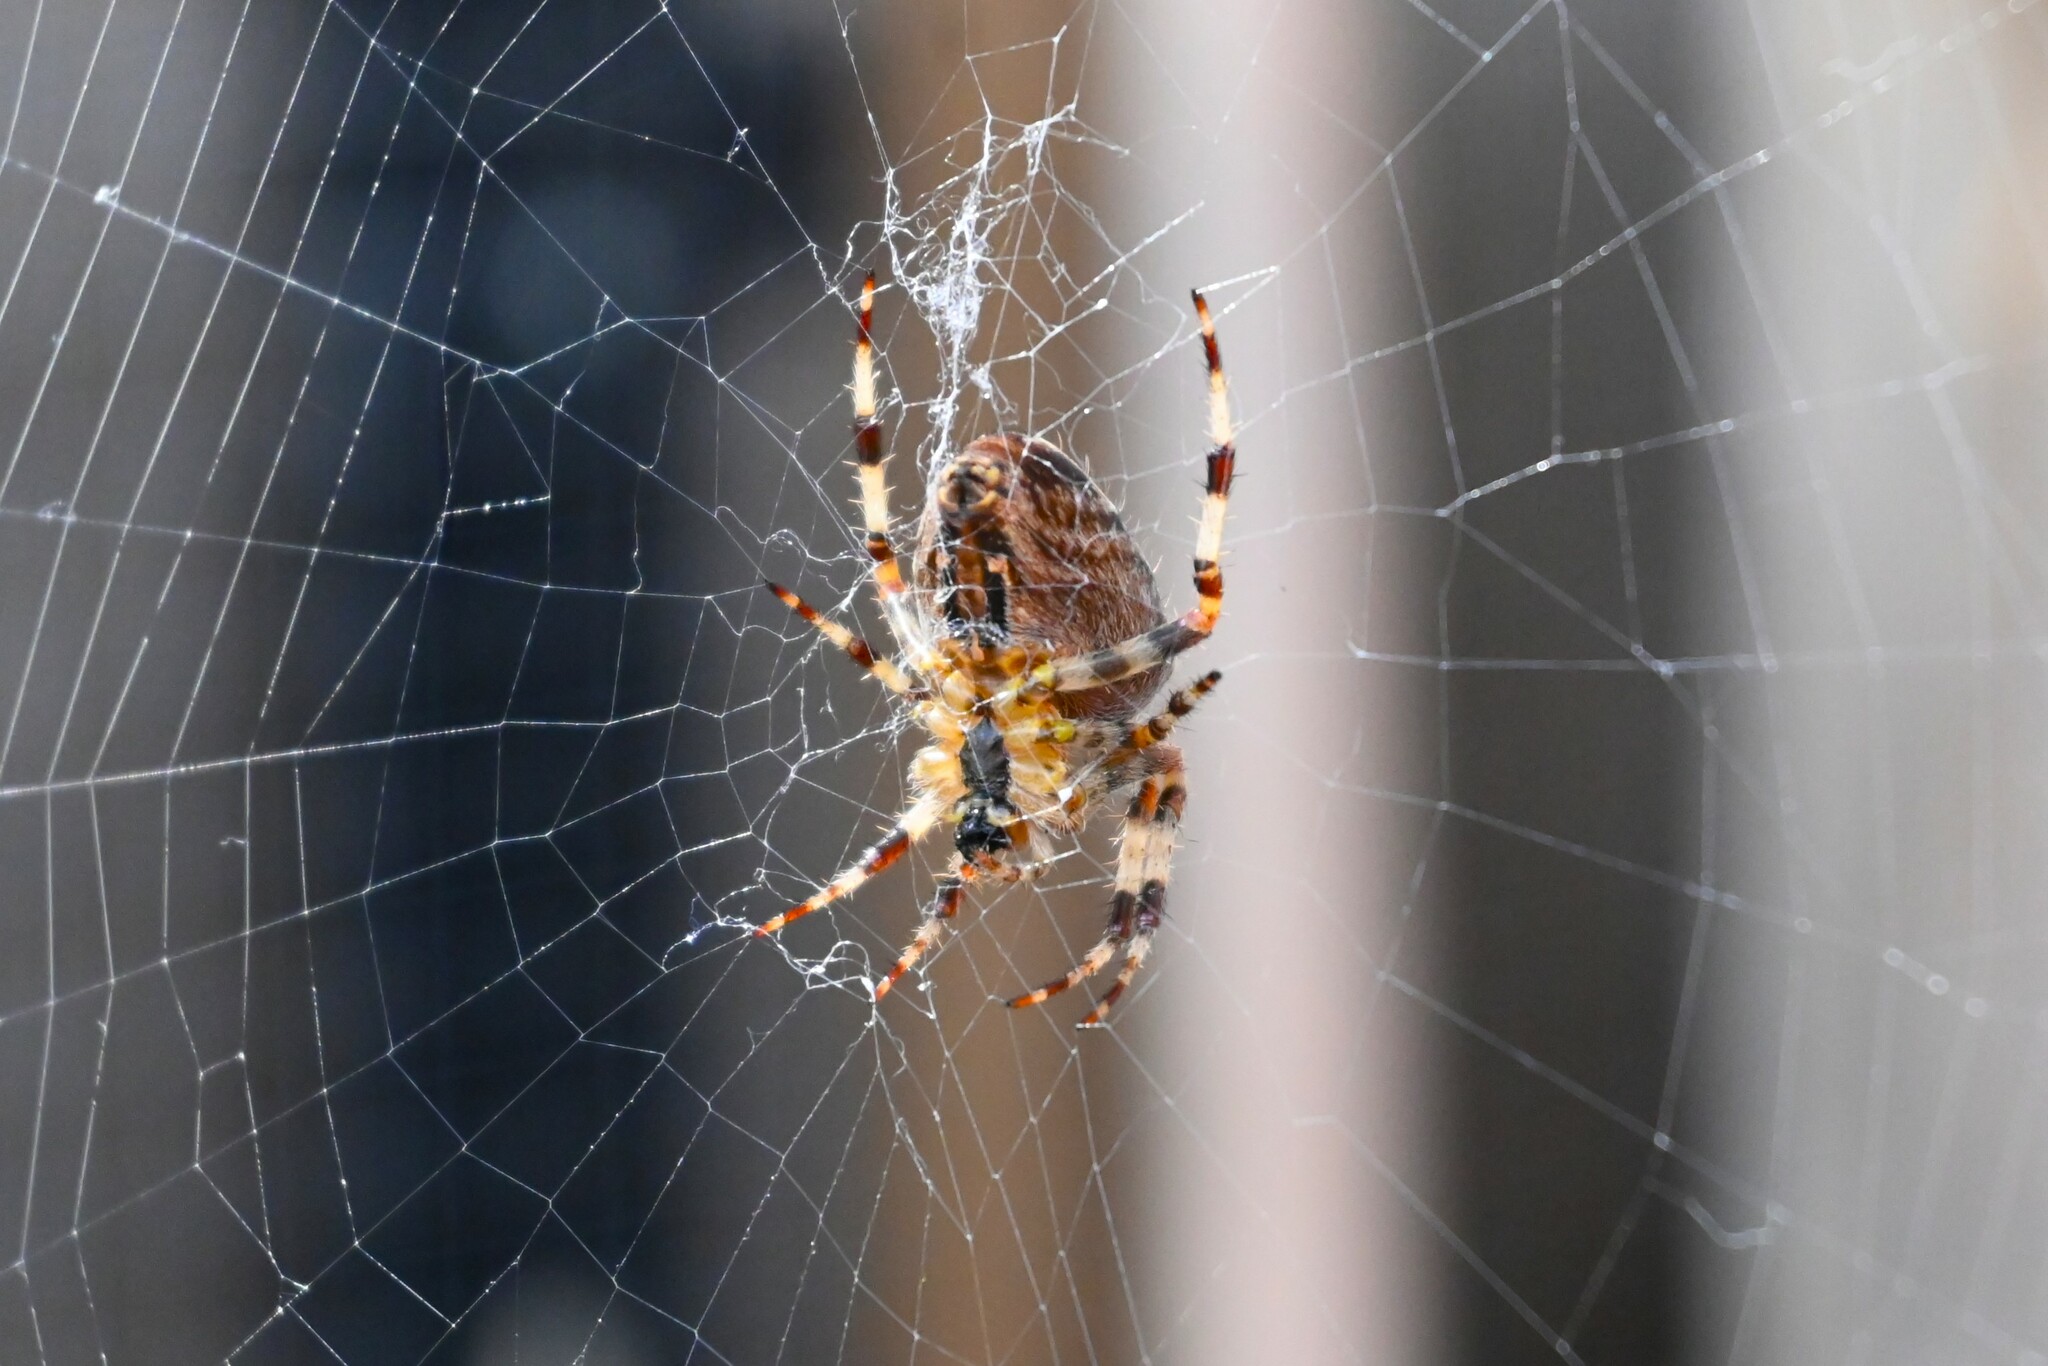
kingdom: Animalia
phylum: Arthropoda
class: Arachnida
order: Araneae
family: Araneidae
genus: Araneus
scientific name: Araneus diadematus
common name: Cross orbweaver
